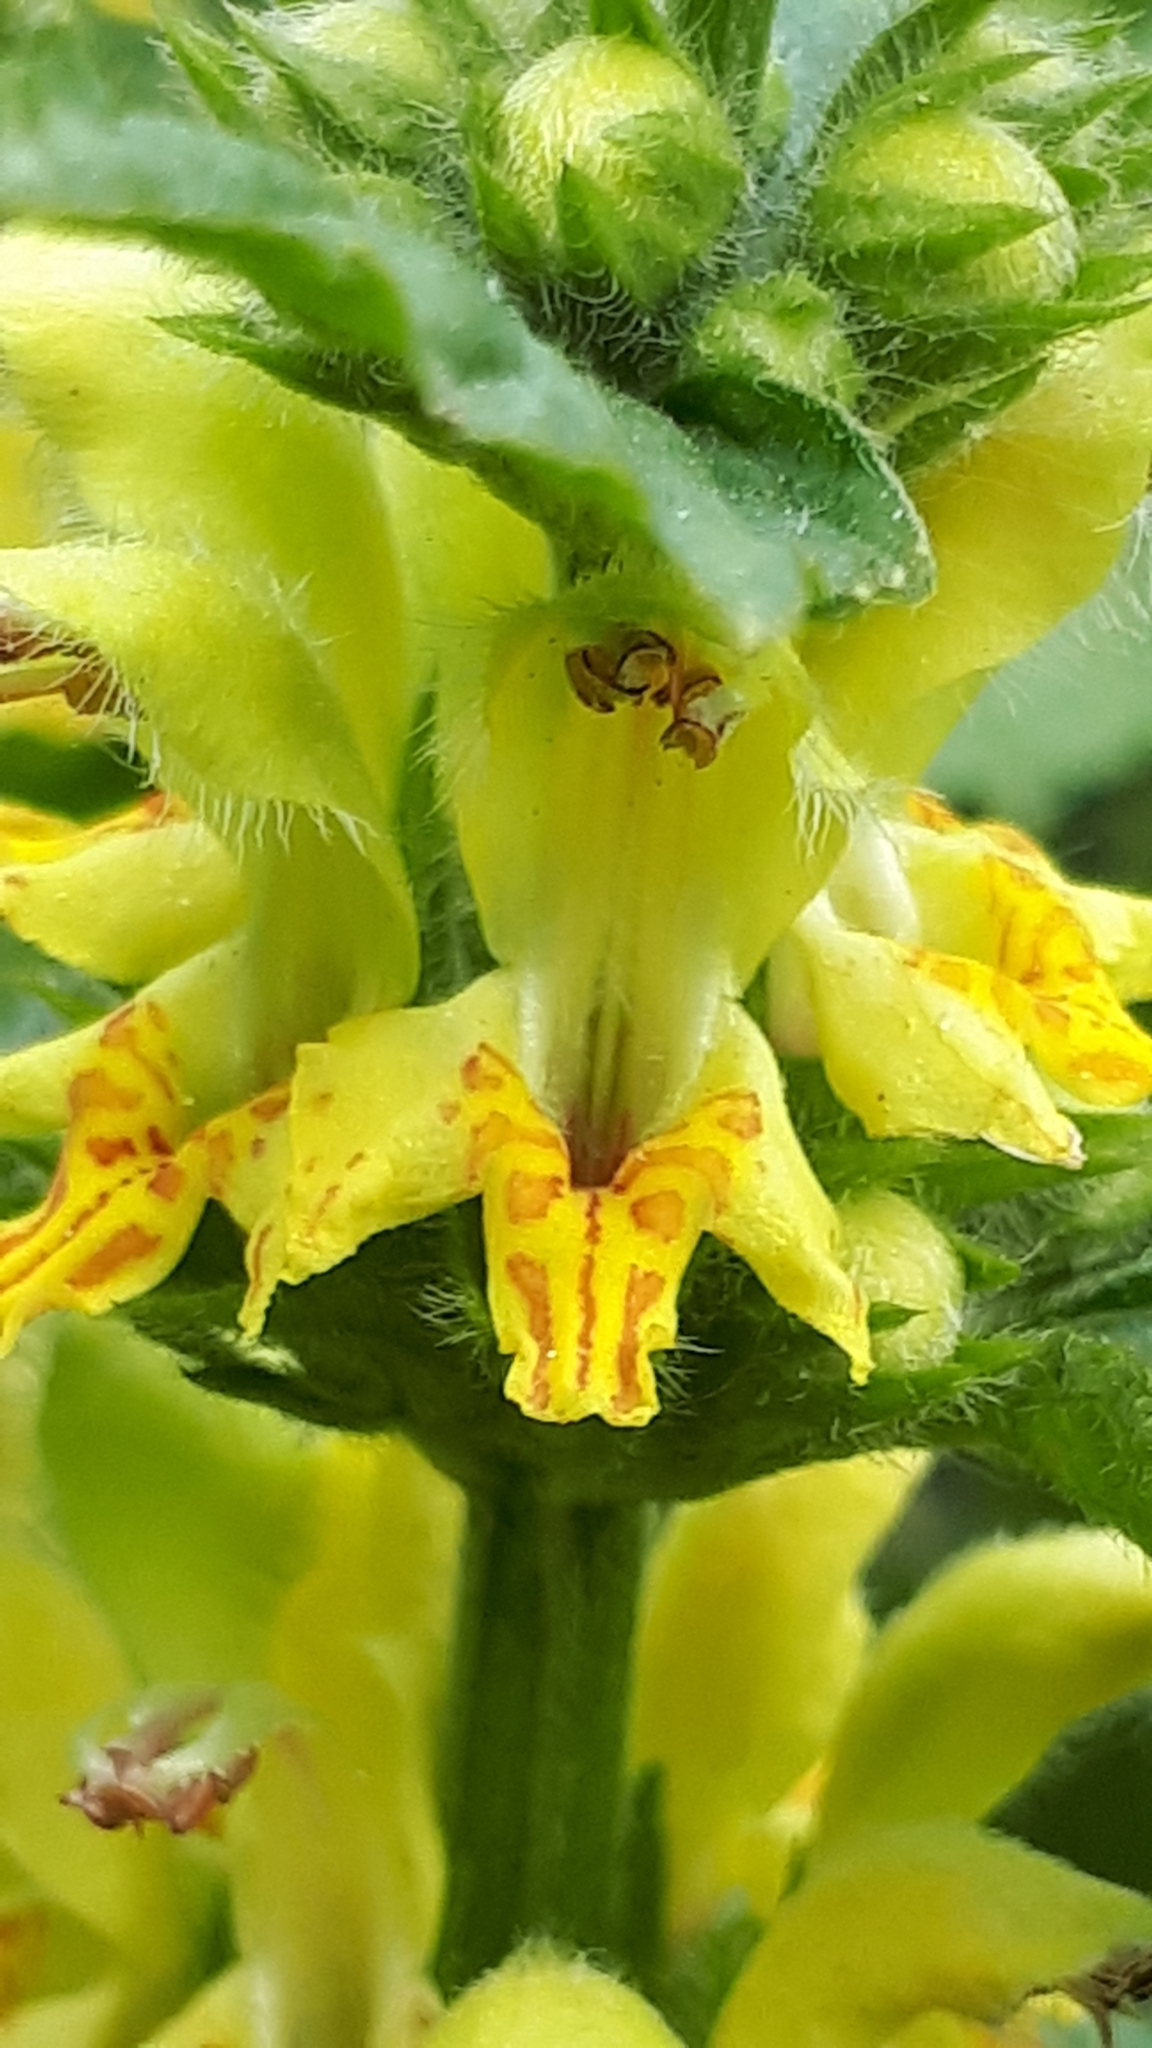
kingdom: Plantae
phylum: Tracheophyta
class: Magnoliopsida
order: Lamiales
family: Lamiaceae
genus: Lamium
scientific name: Lamium galeobdolon
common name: Yellow archangel
